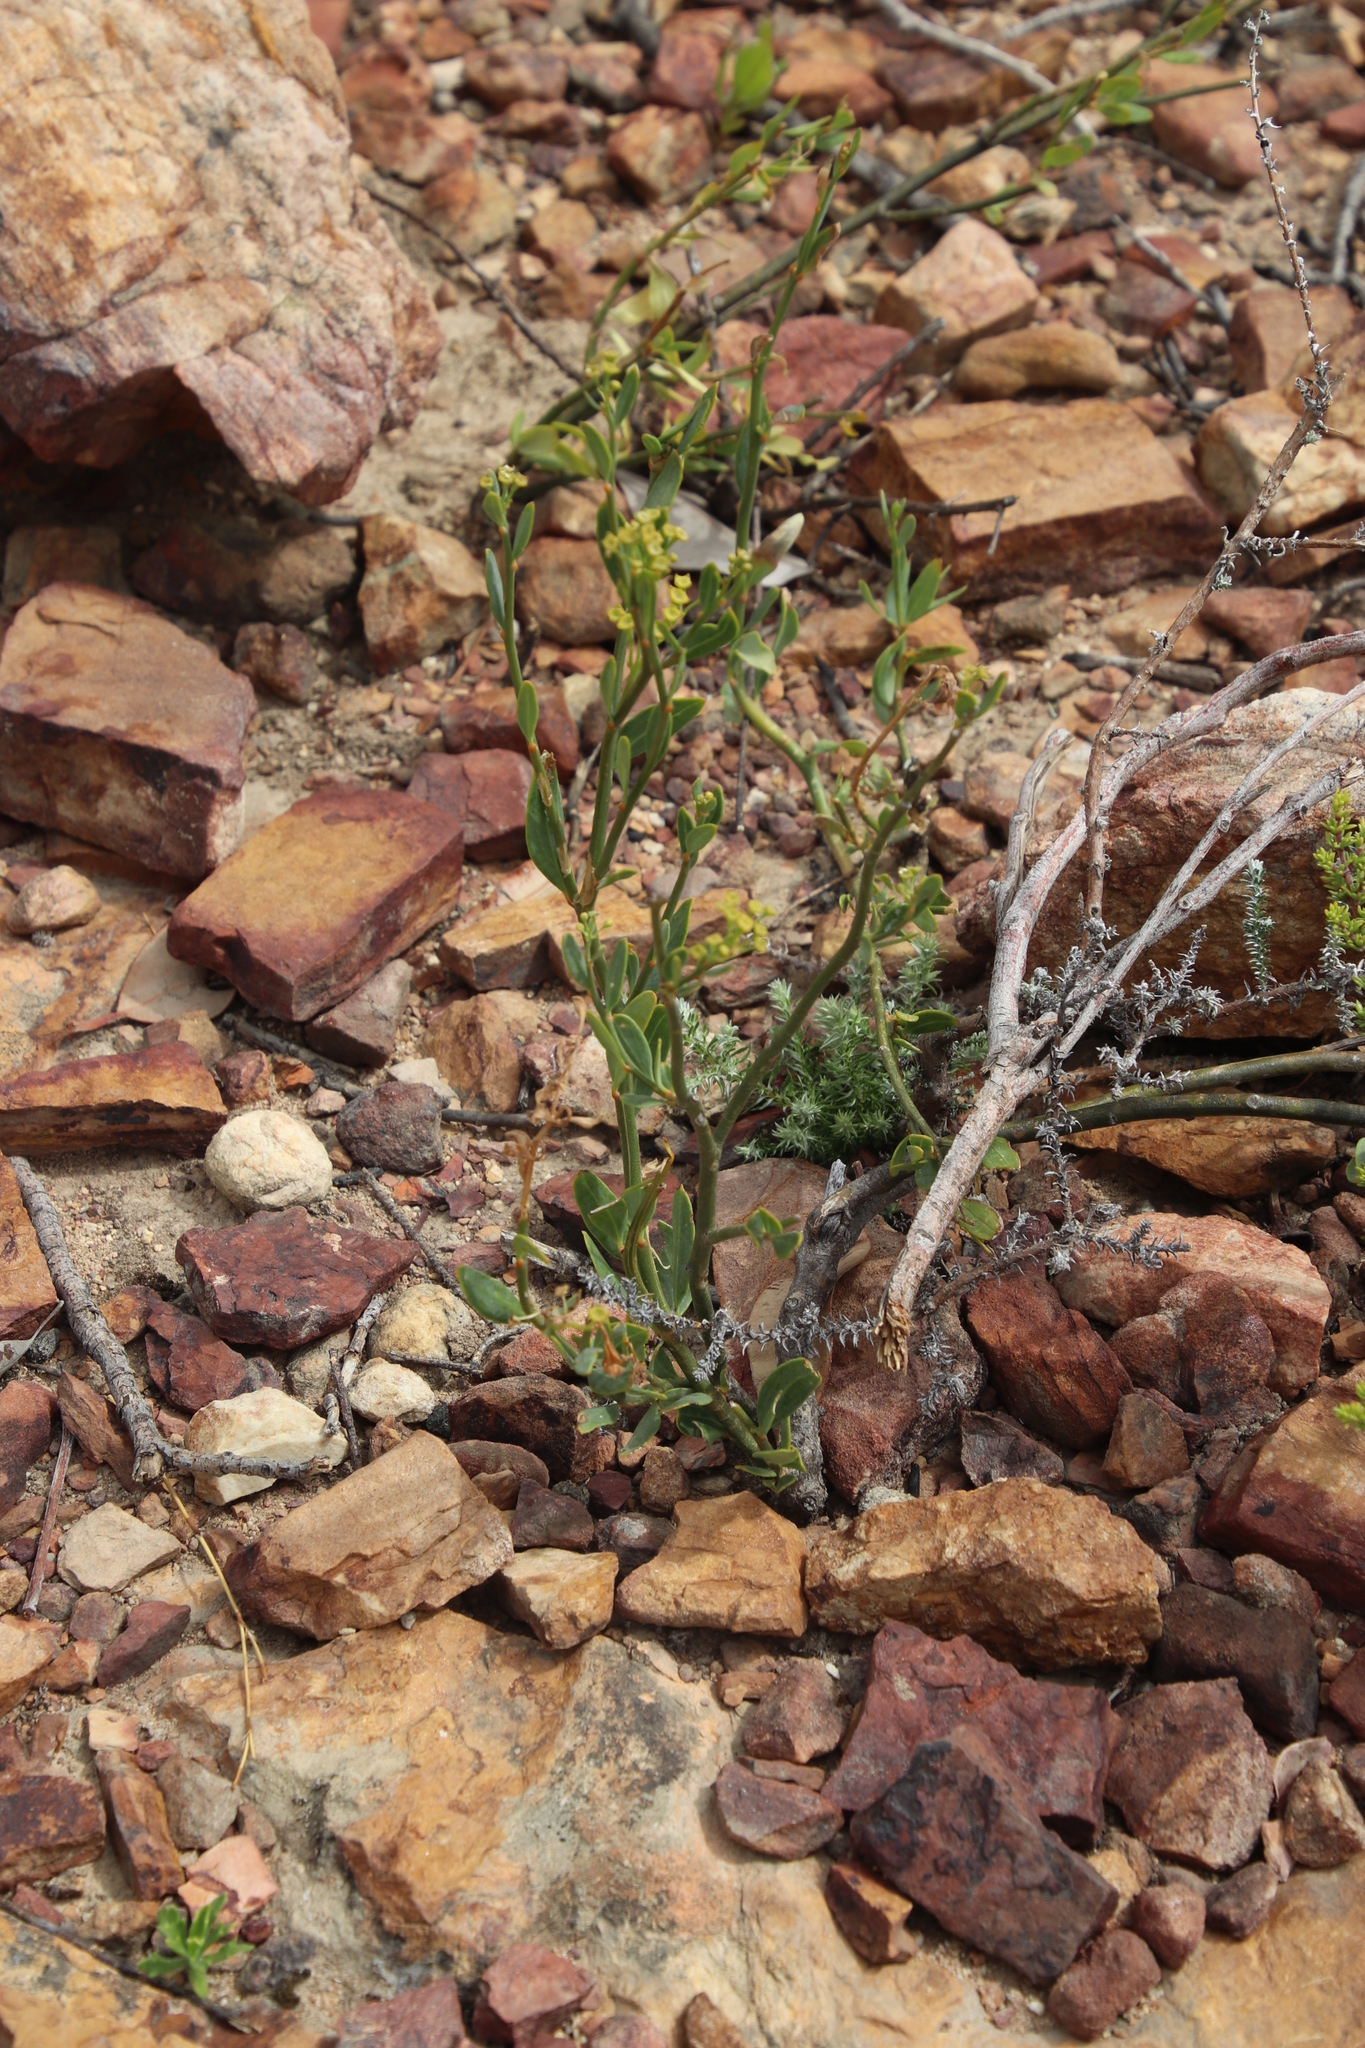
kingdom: Plantae
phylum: Tracheophyta
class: Magnoliopsida
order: Solanales
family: Montiniaceae
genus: Montinia
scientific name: Montinia caryophyllacea
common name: Wild clove-bush
